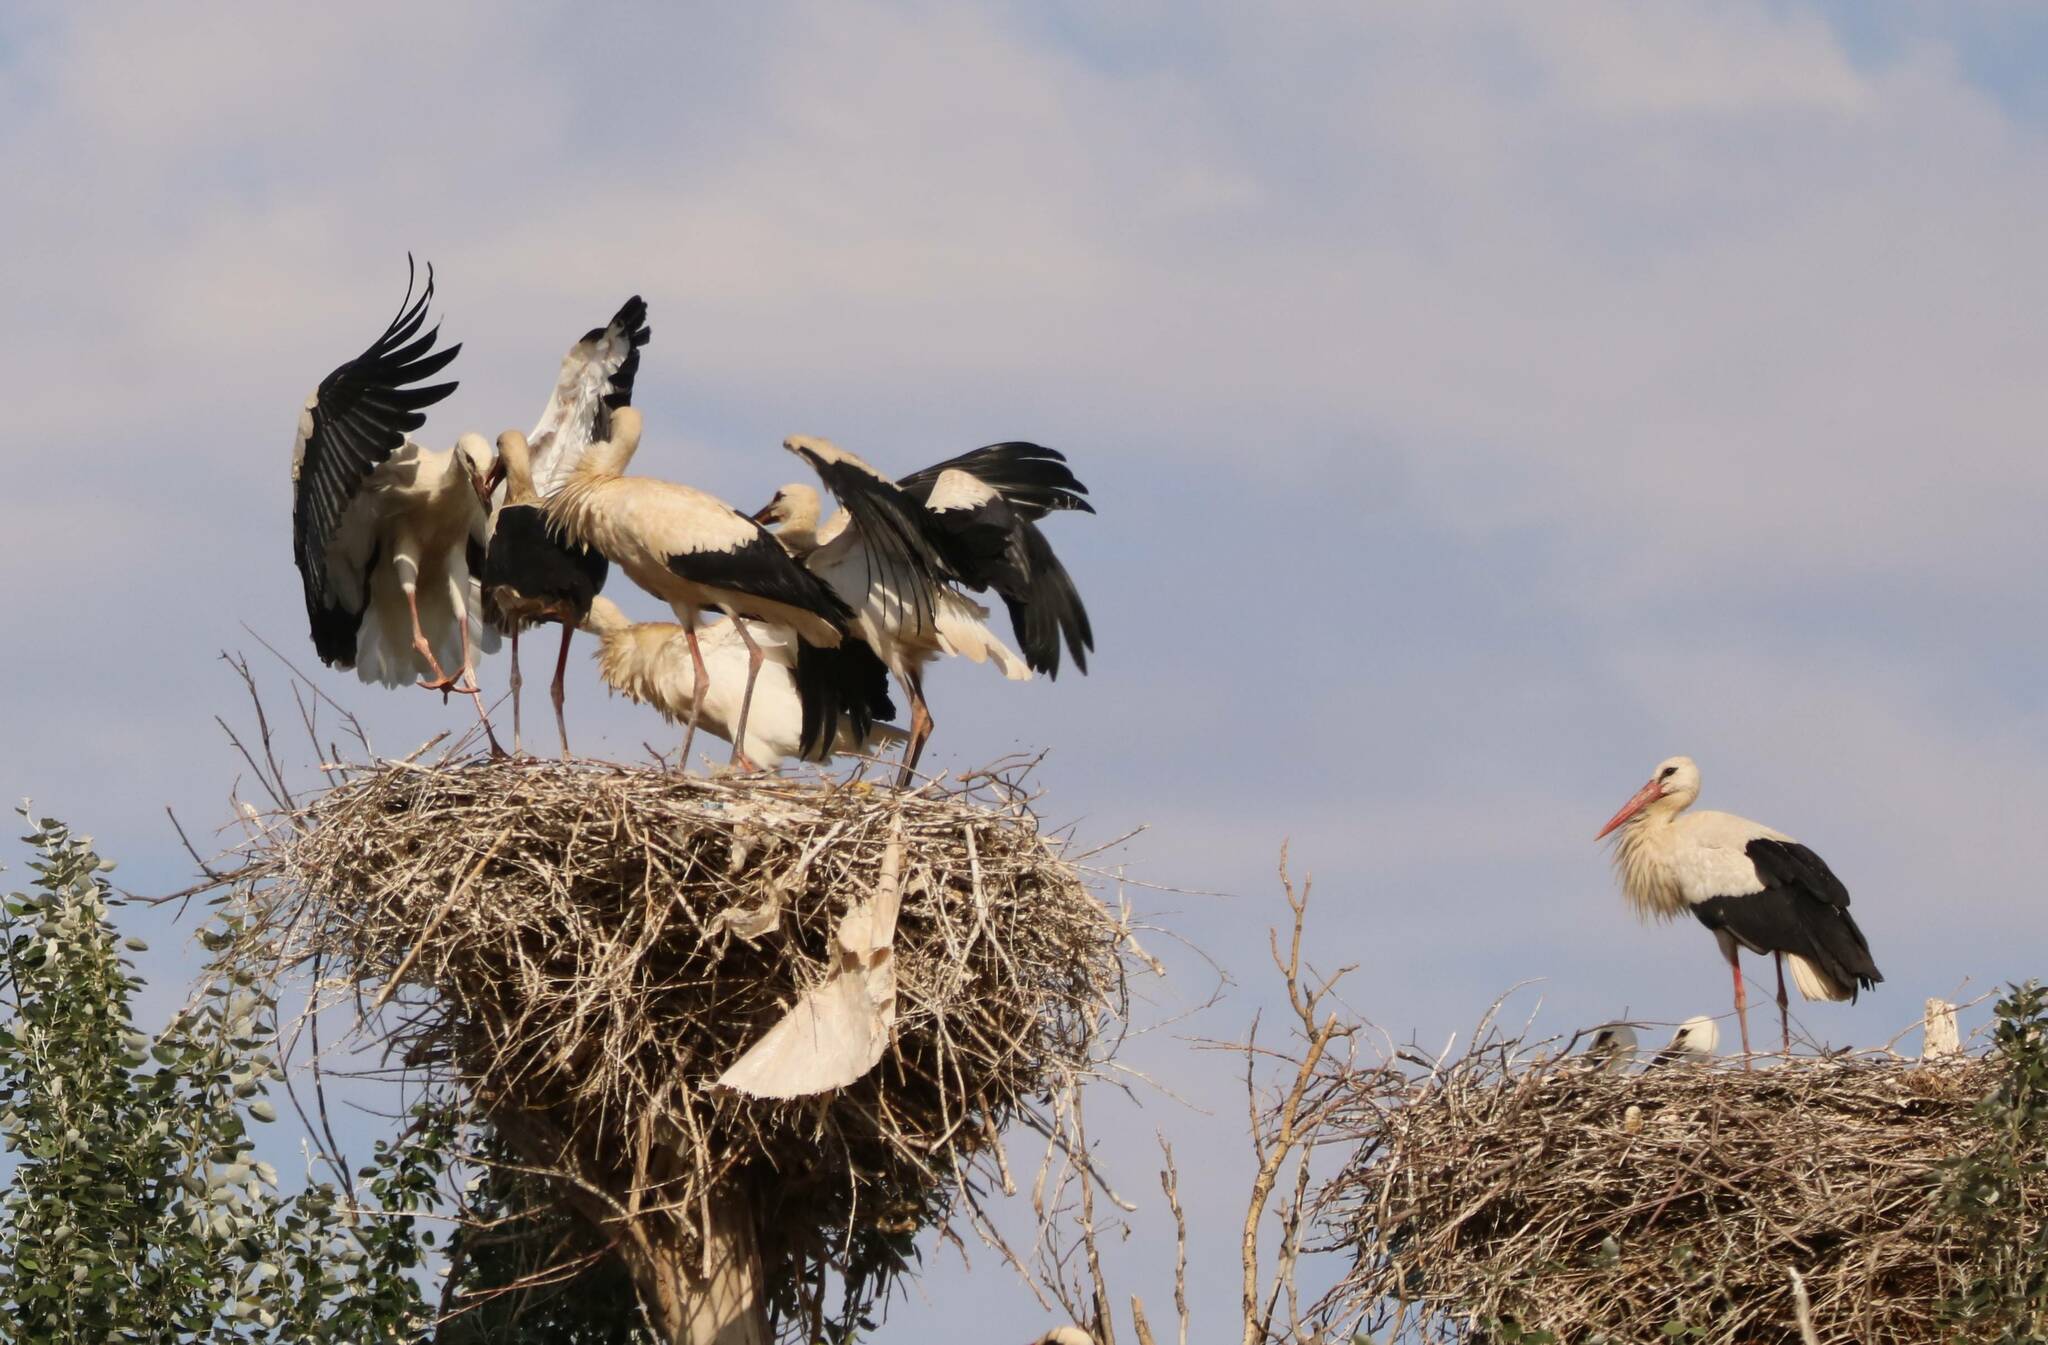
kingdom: Animalia
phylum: Chordata
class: Aves
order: Ciconiiformes
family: Ciconiidae
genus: Ciconia
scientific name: Ciconia ciconia
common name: White stork
